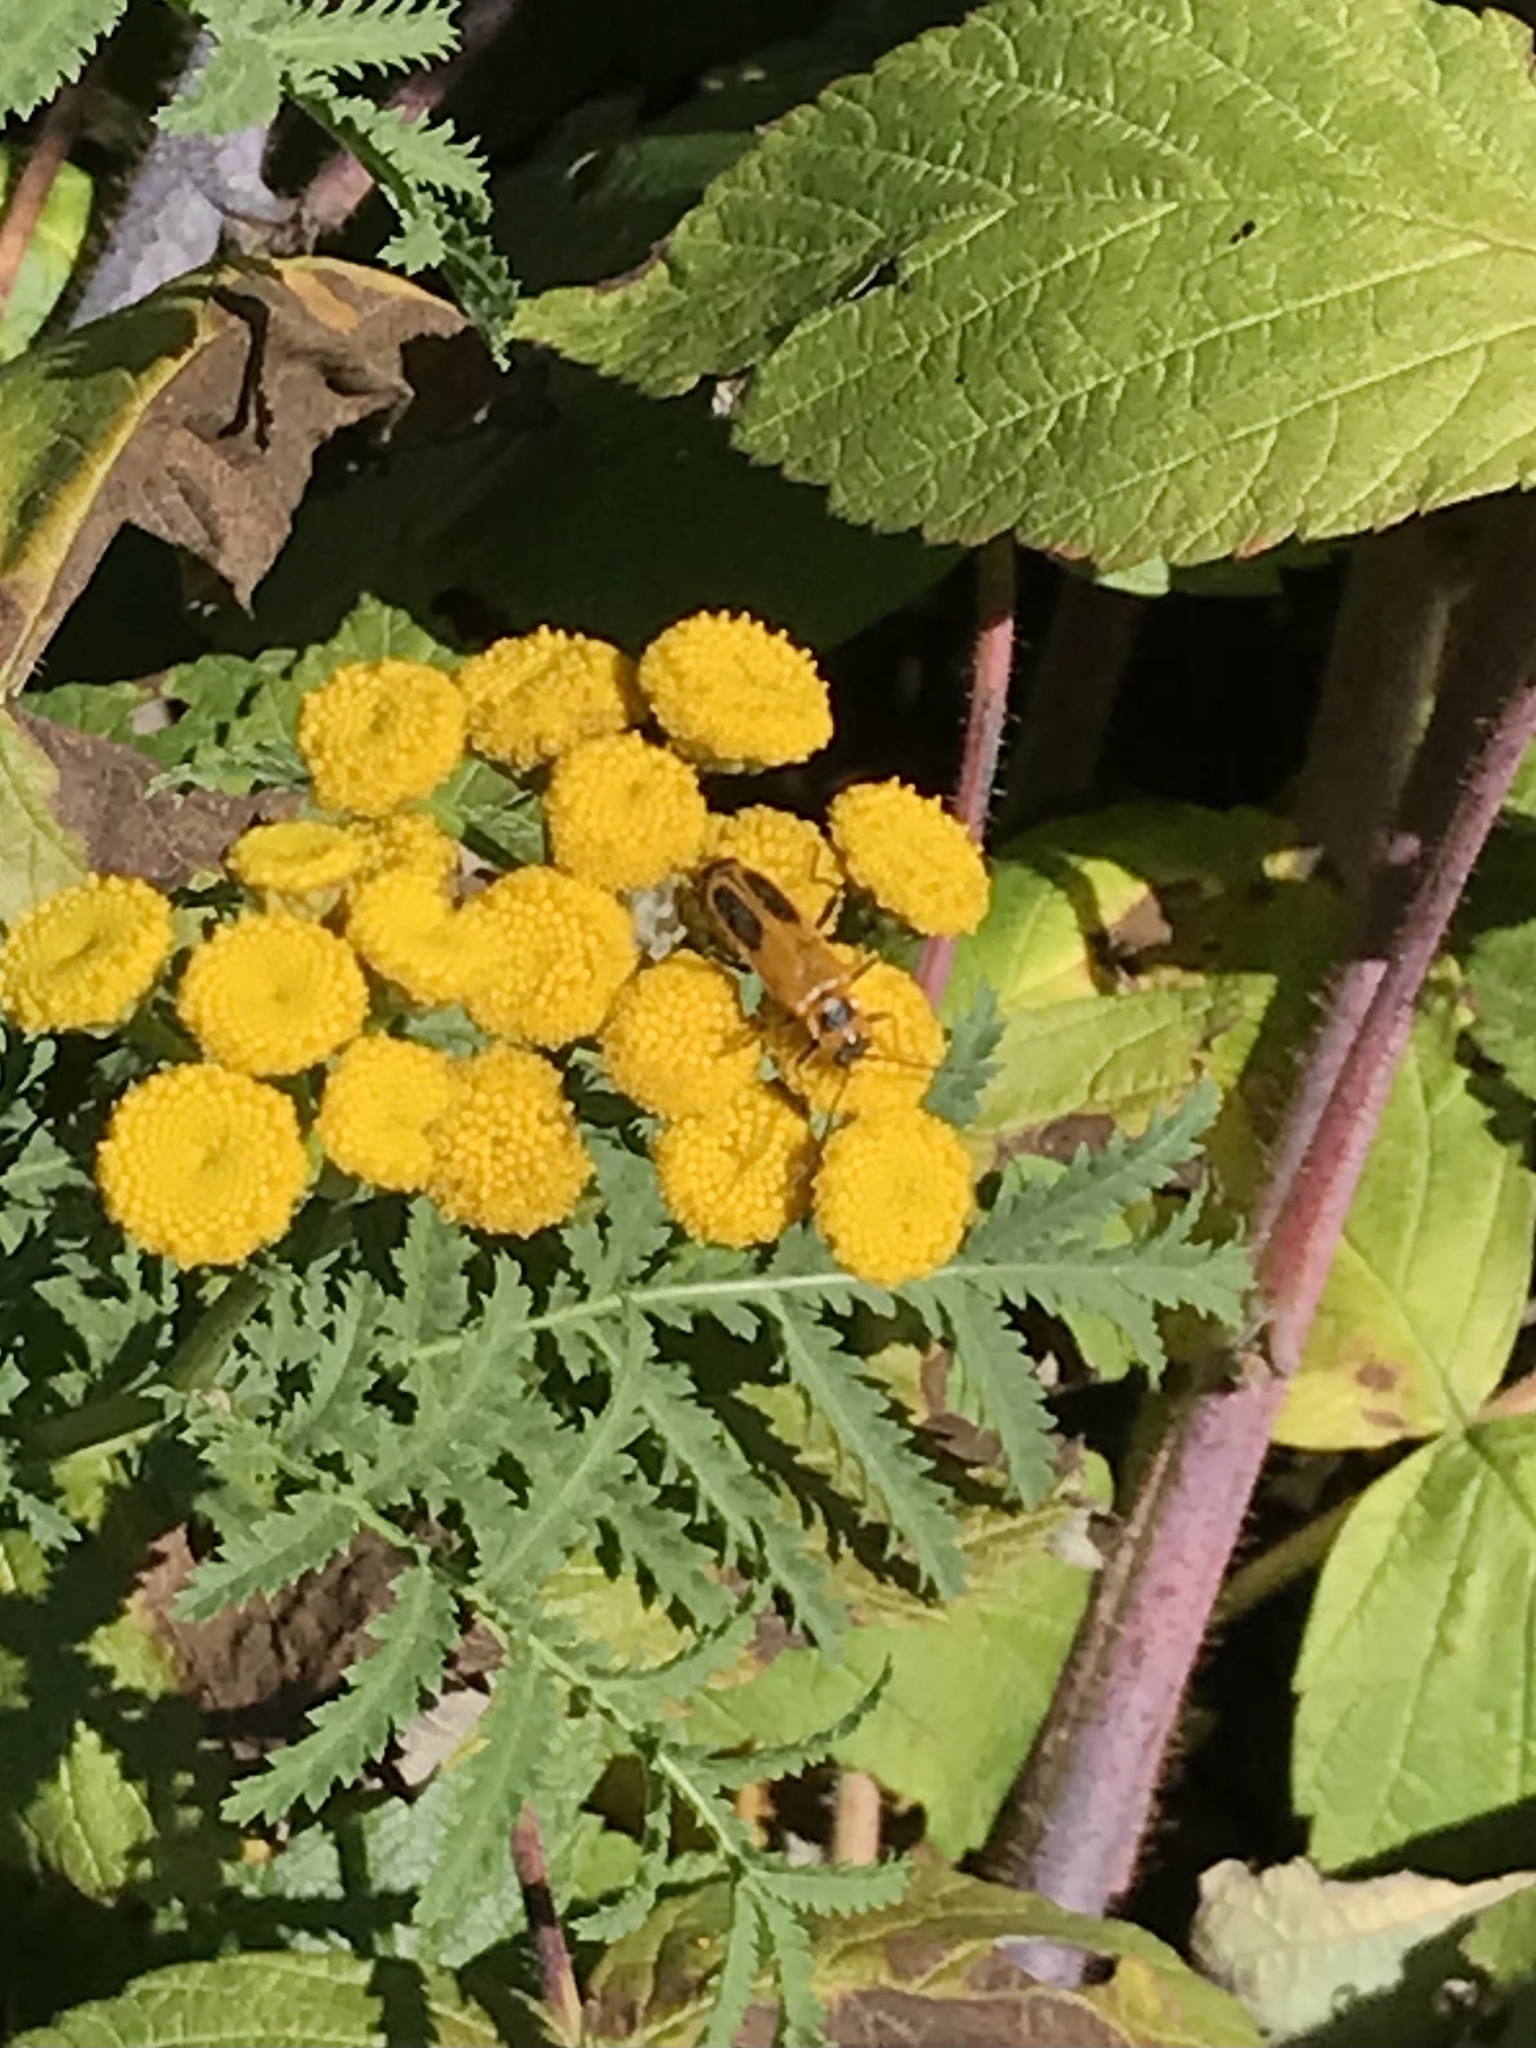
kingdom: Animalia
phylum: Arthropoda
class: Insecta
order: Coleoptera
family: Cantharidae
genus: Chauliognathus
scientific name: Chauliognathus pensylvanicus
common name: Goldenrod soldier beetle
